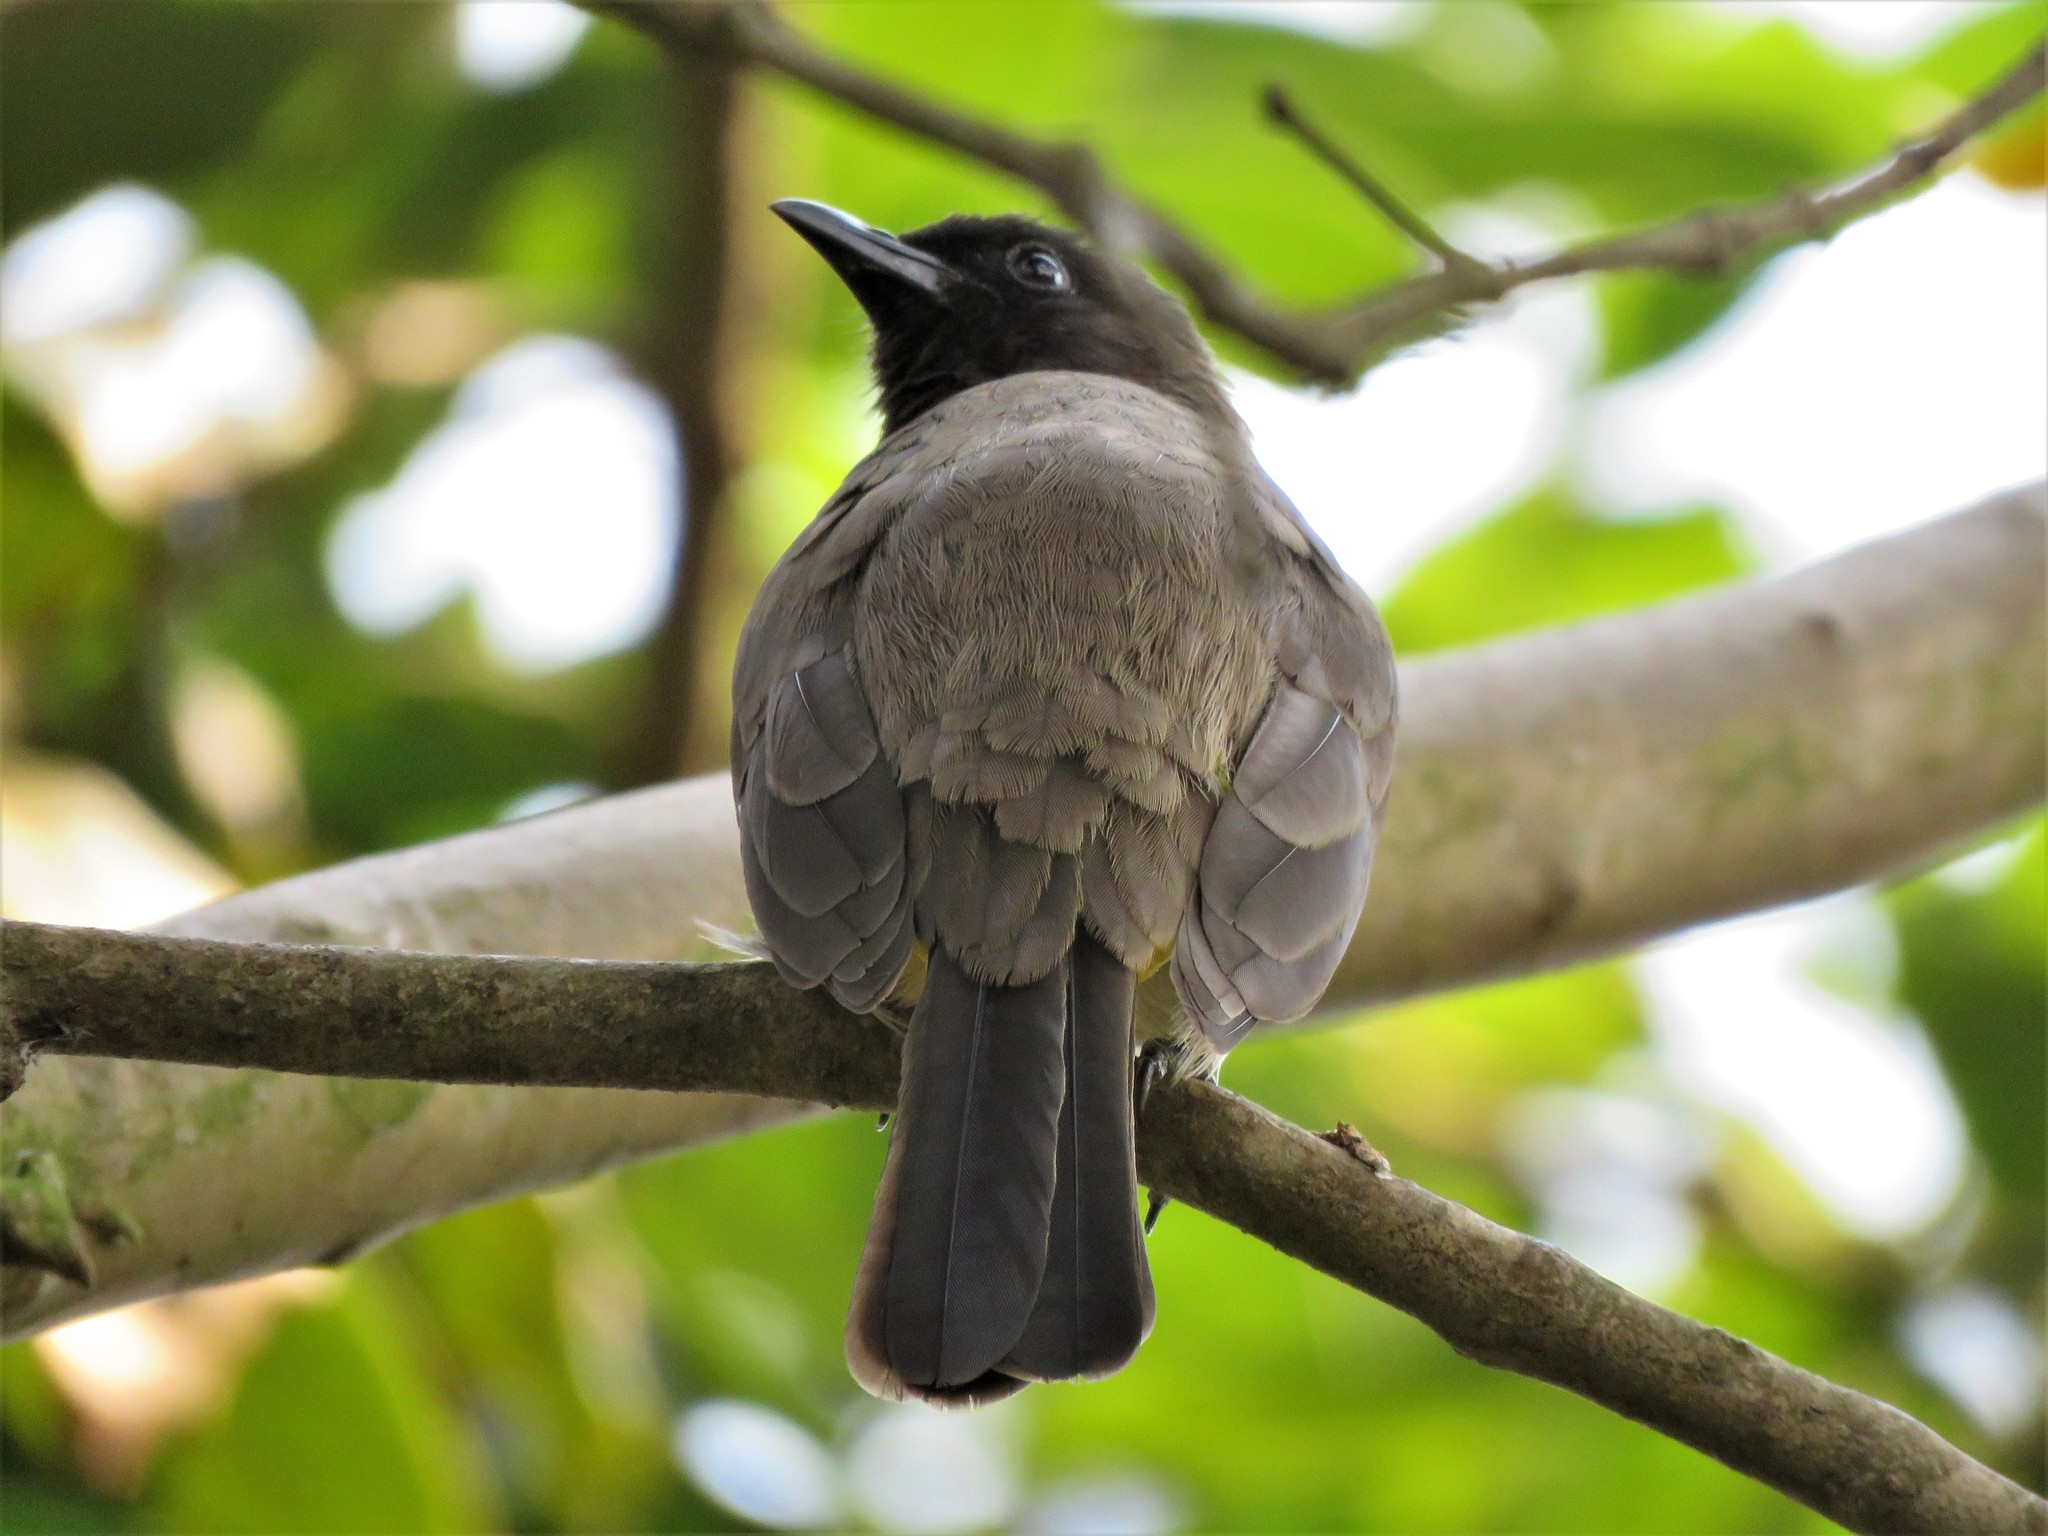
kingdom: Animalia
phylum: Chordata
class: Aves
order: Passeriformes
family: Pycnonotidae
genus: Pycnonotus
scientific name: Pycnonotus barbatus
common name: Common bulbul
